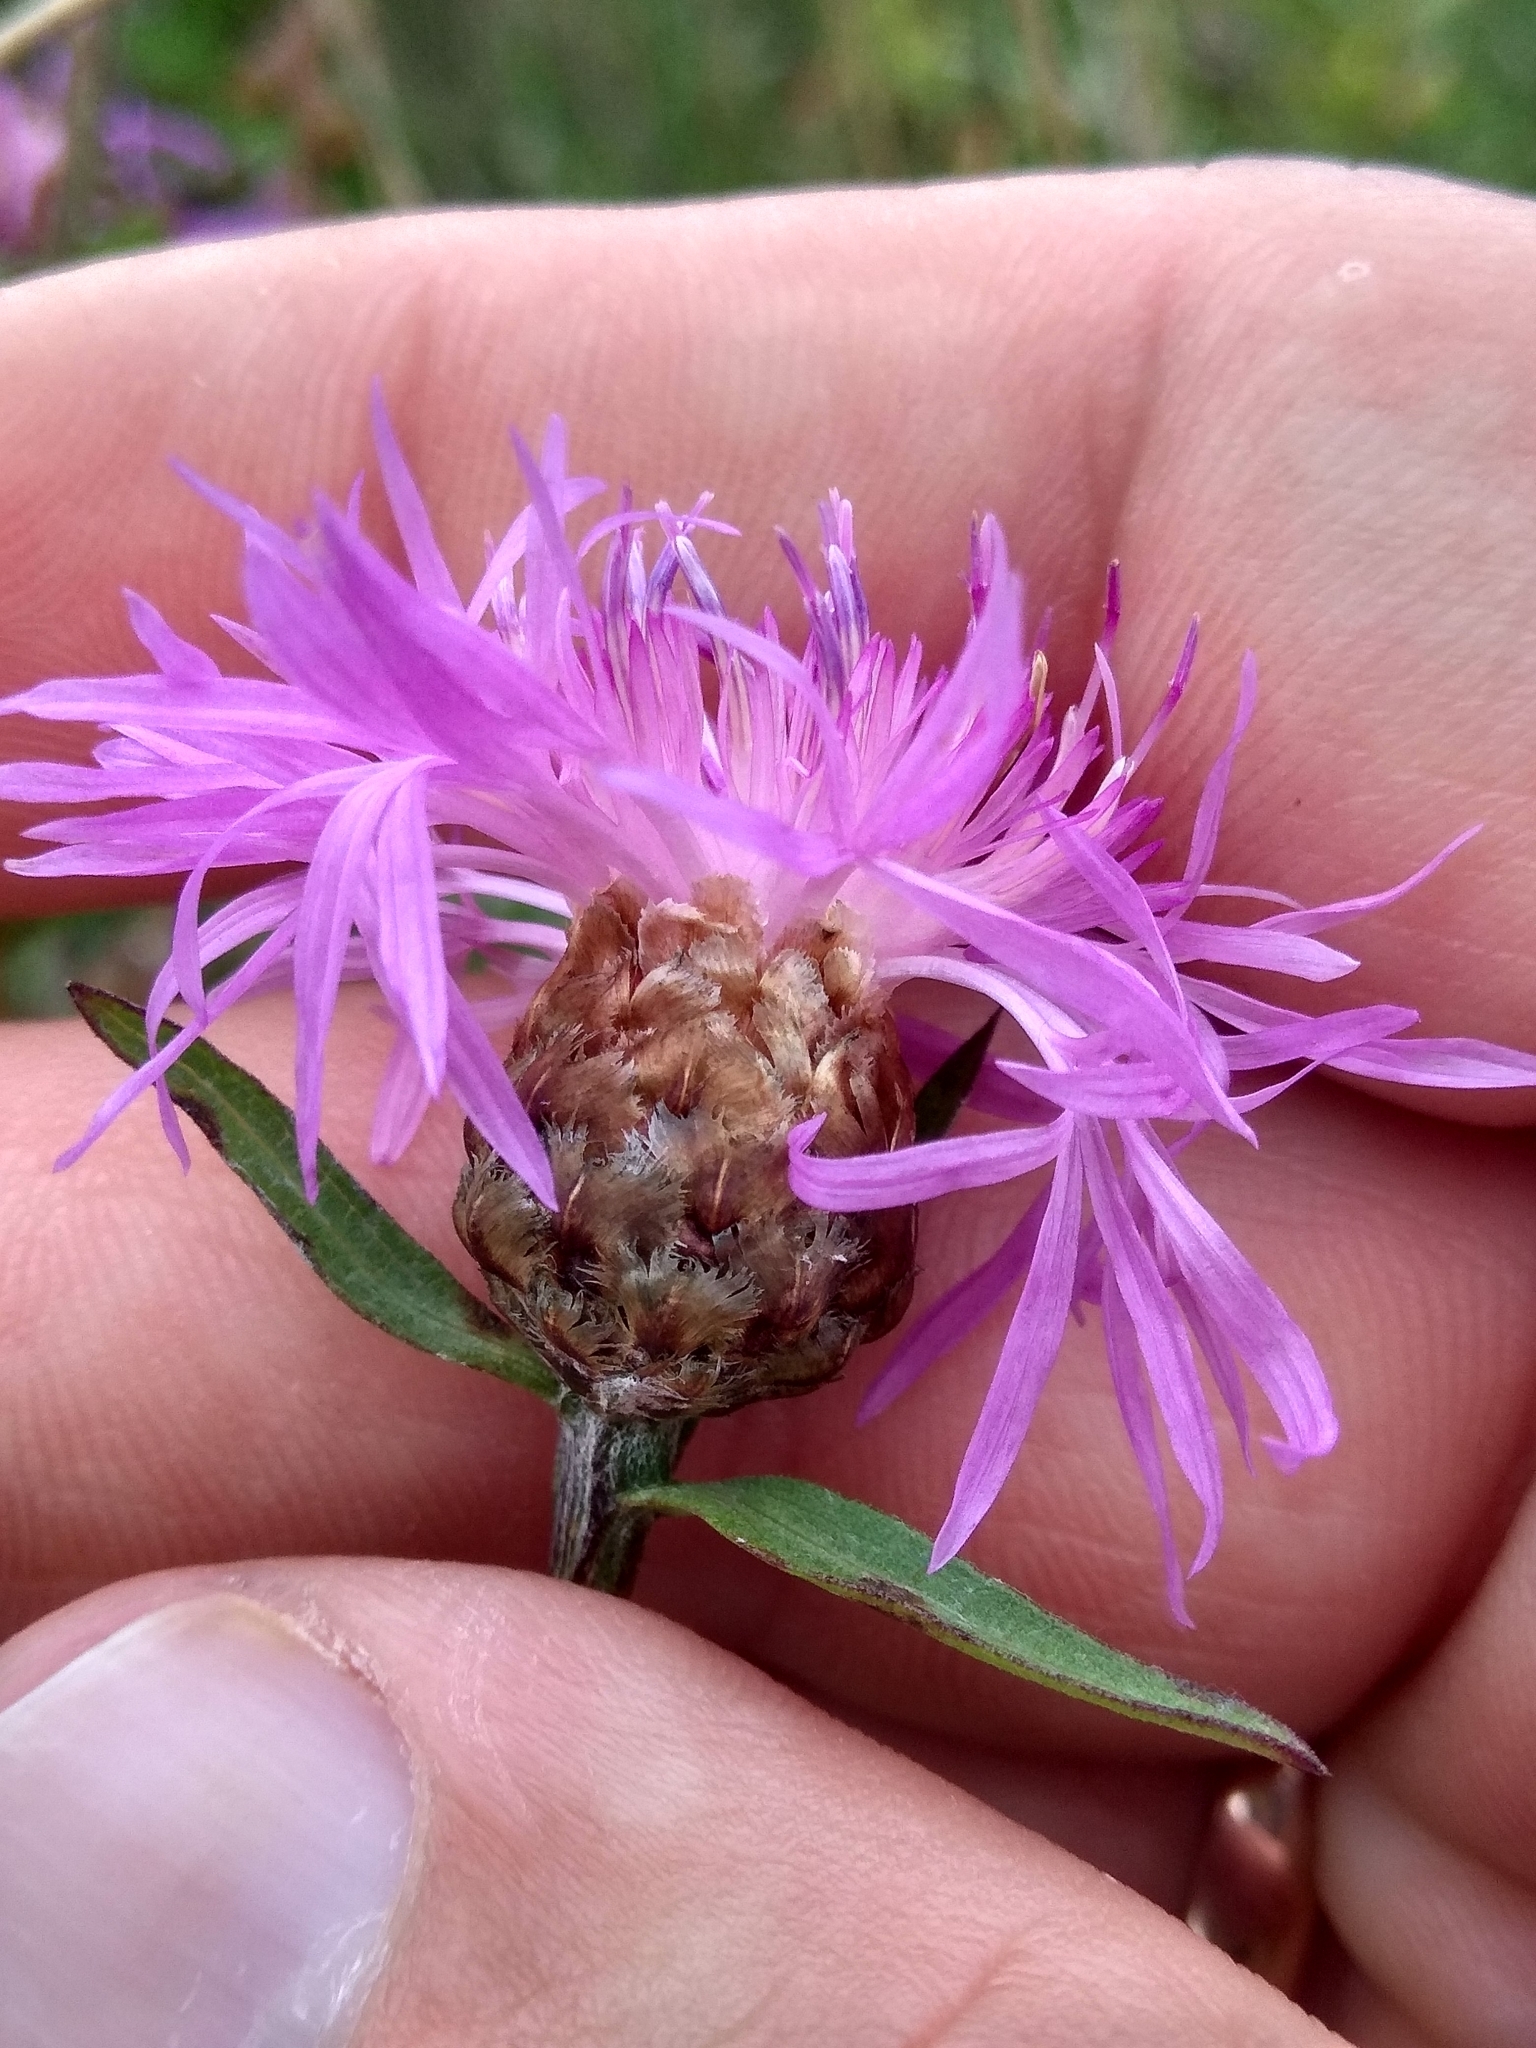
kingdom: Plantae
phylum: Tracheophyta
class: Magnoliopsida
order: Asterales
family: Asteraceae
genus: Centaurea
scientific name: Centaurea jacea
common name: Brown knapweed
